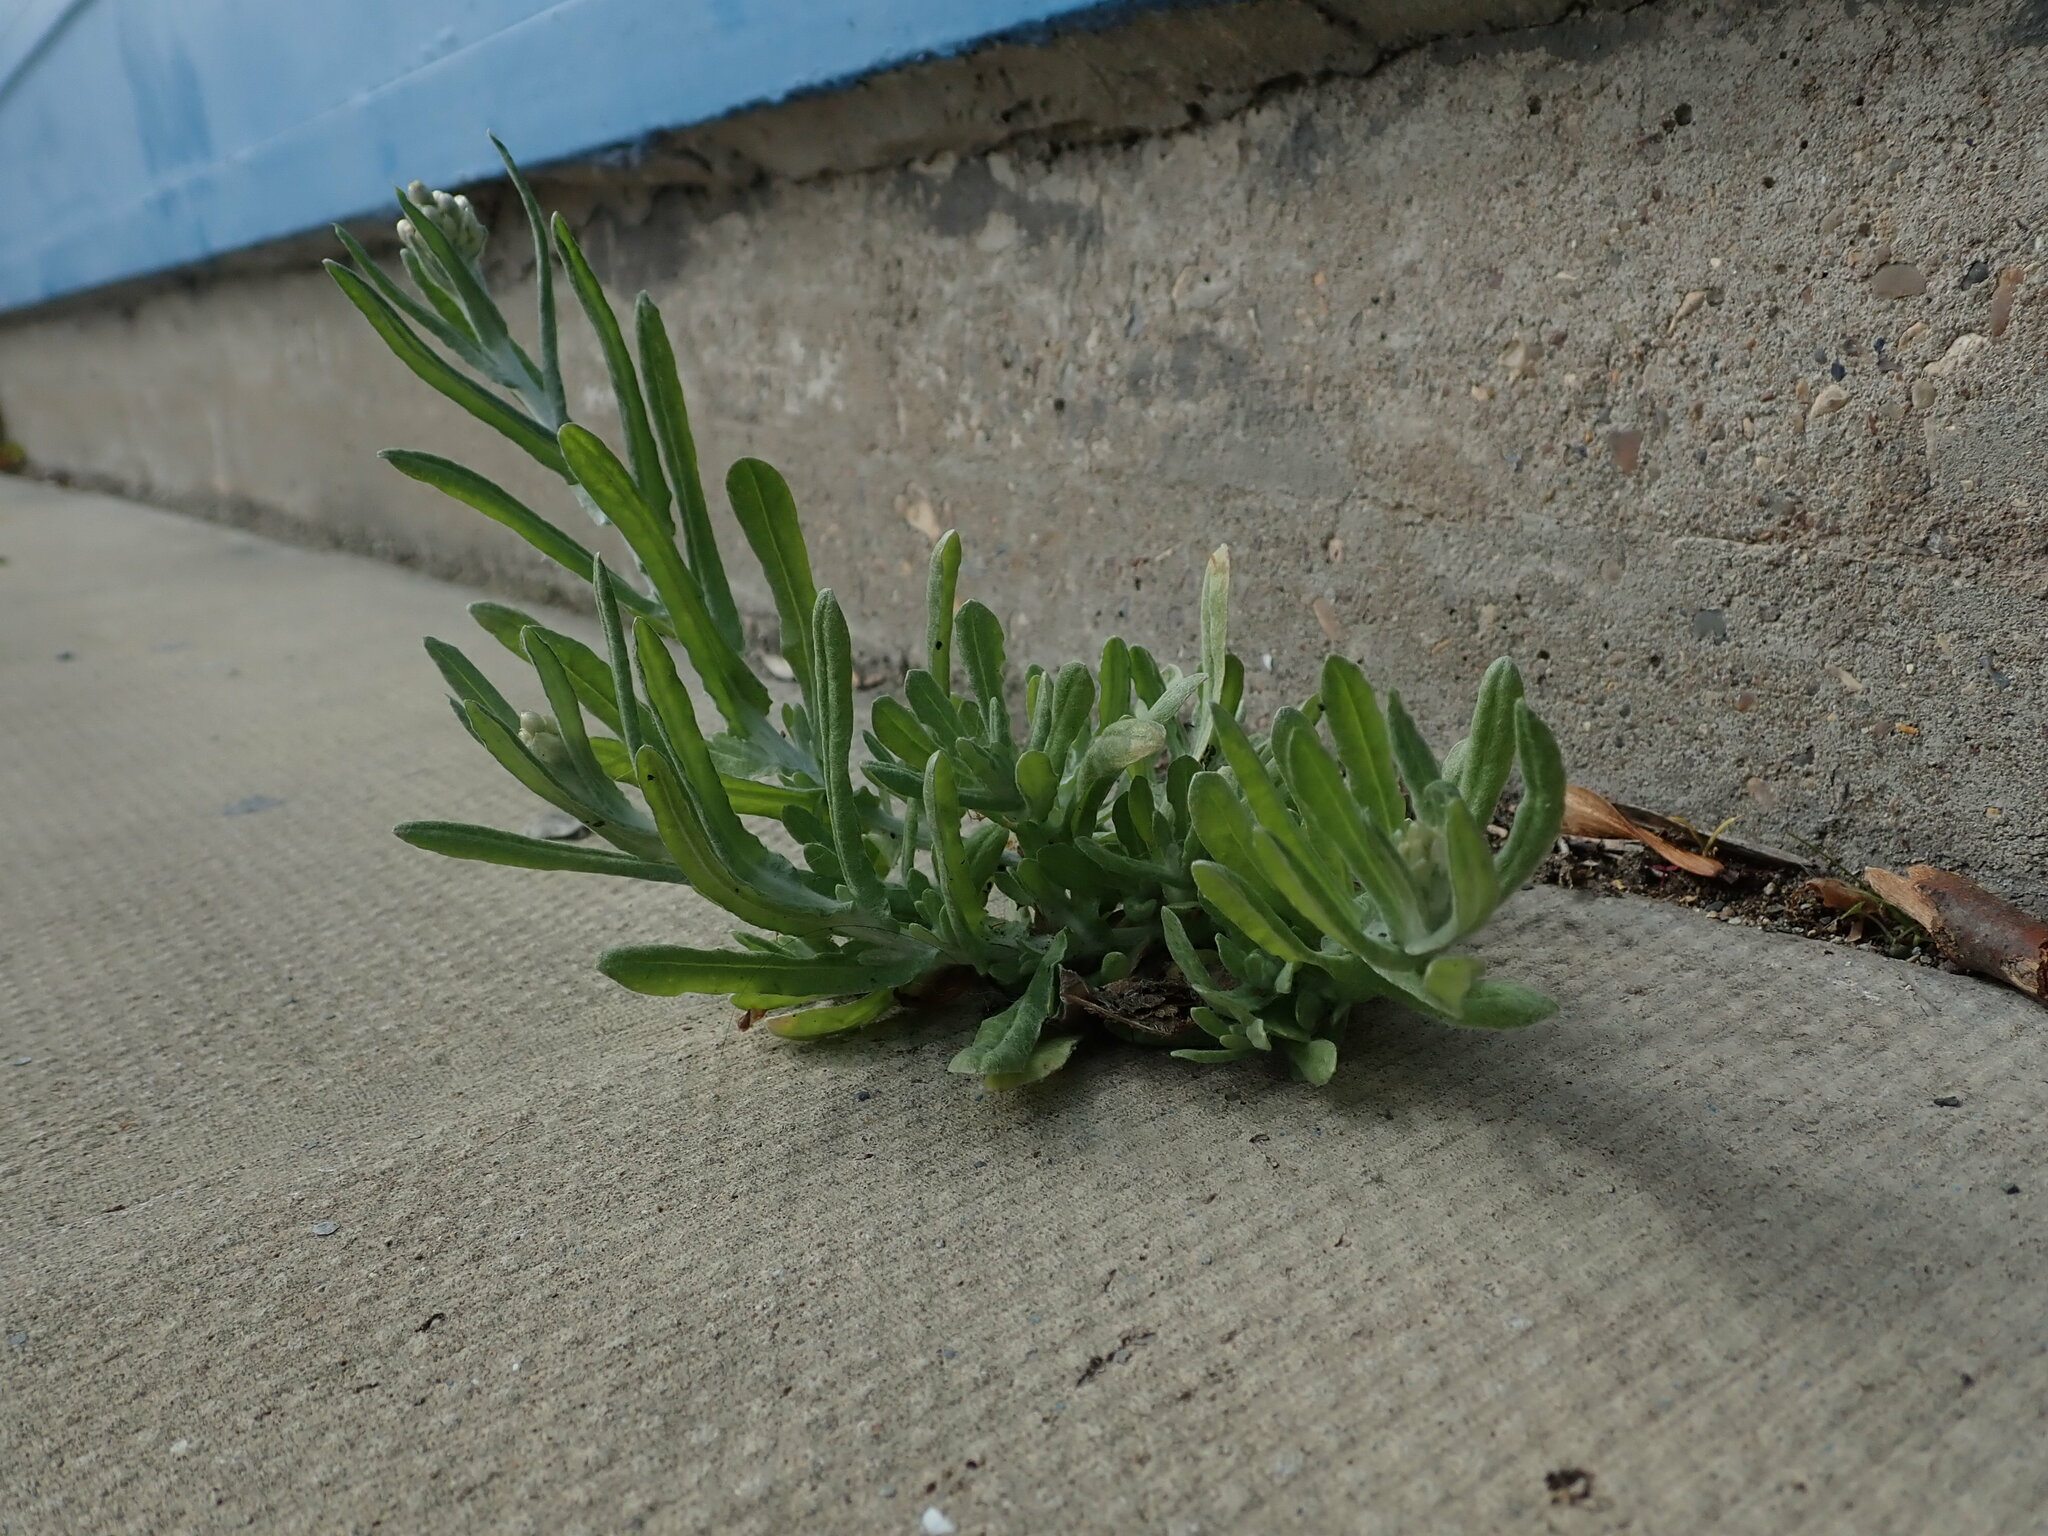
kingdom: Plantae
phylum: Tracheophyta
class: Magnoliopsida
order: Asterales
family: Asteraceae
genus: Helichrysum
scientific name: Helichrysum luteoalbum
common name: Daisy
